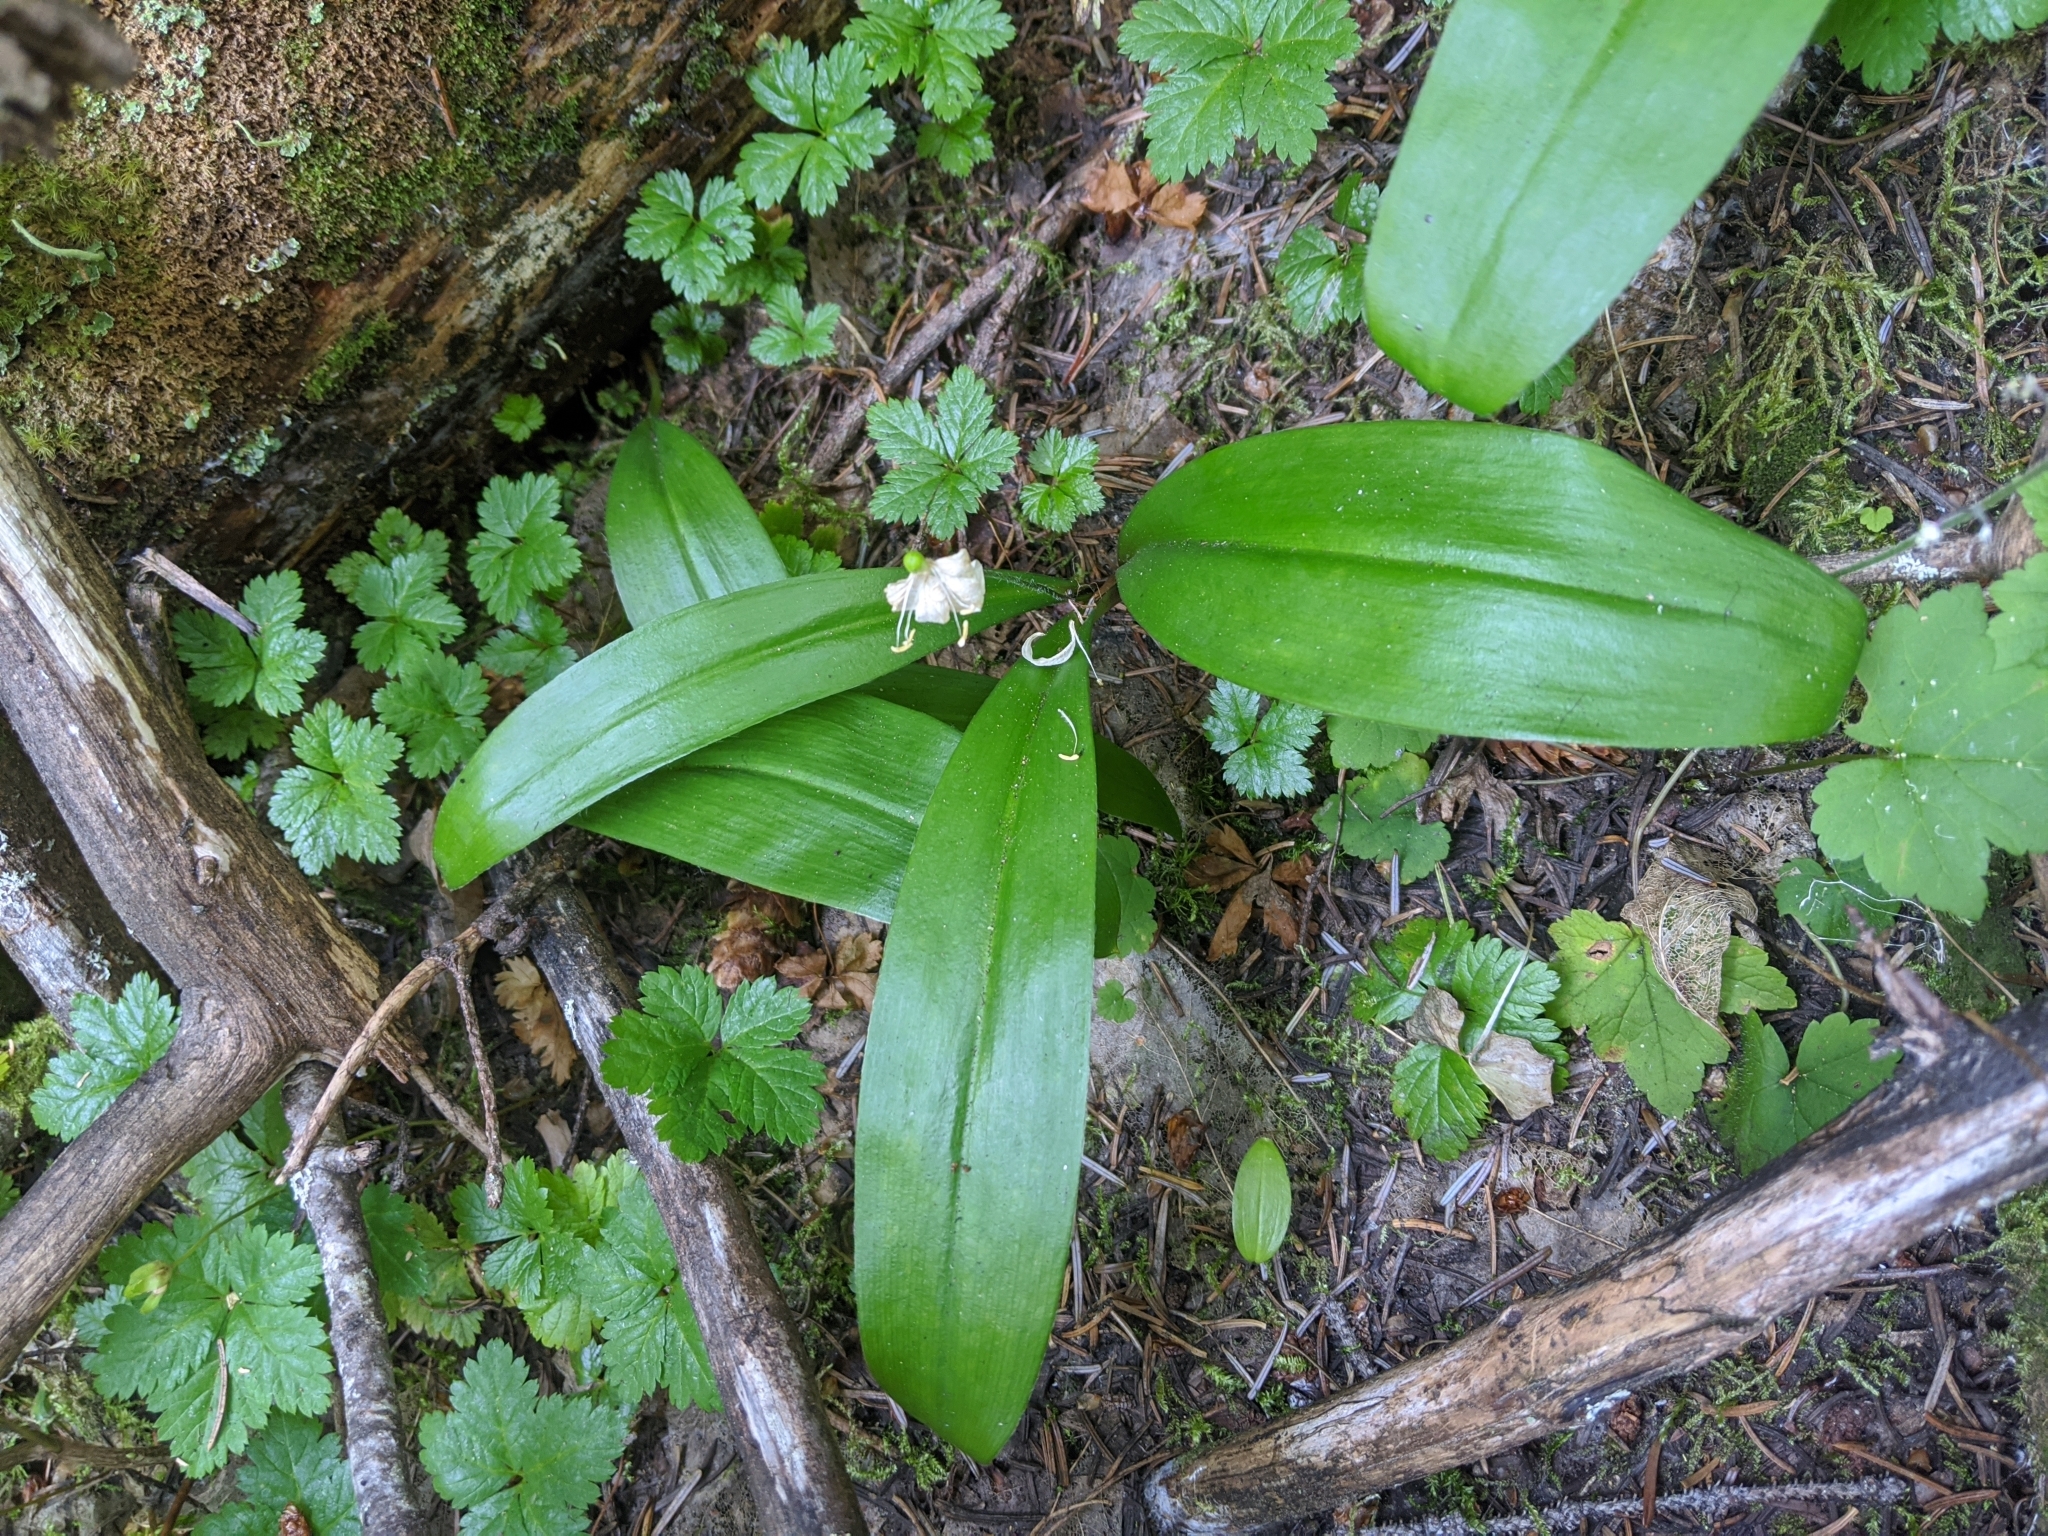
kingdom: Plantae
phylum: Tracheophyta
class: Liliopsida
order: Liliales
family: Liliaceae
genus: Clintonia
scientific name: Clintonia uniflora
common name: Queen's cup
